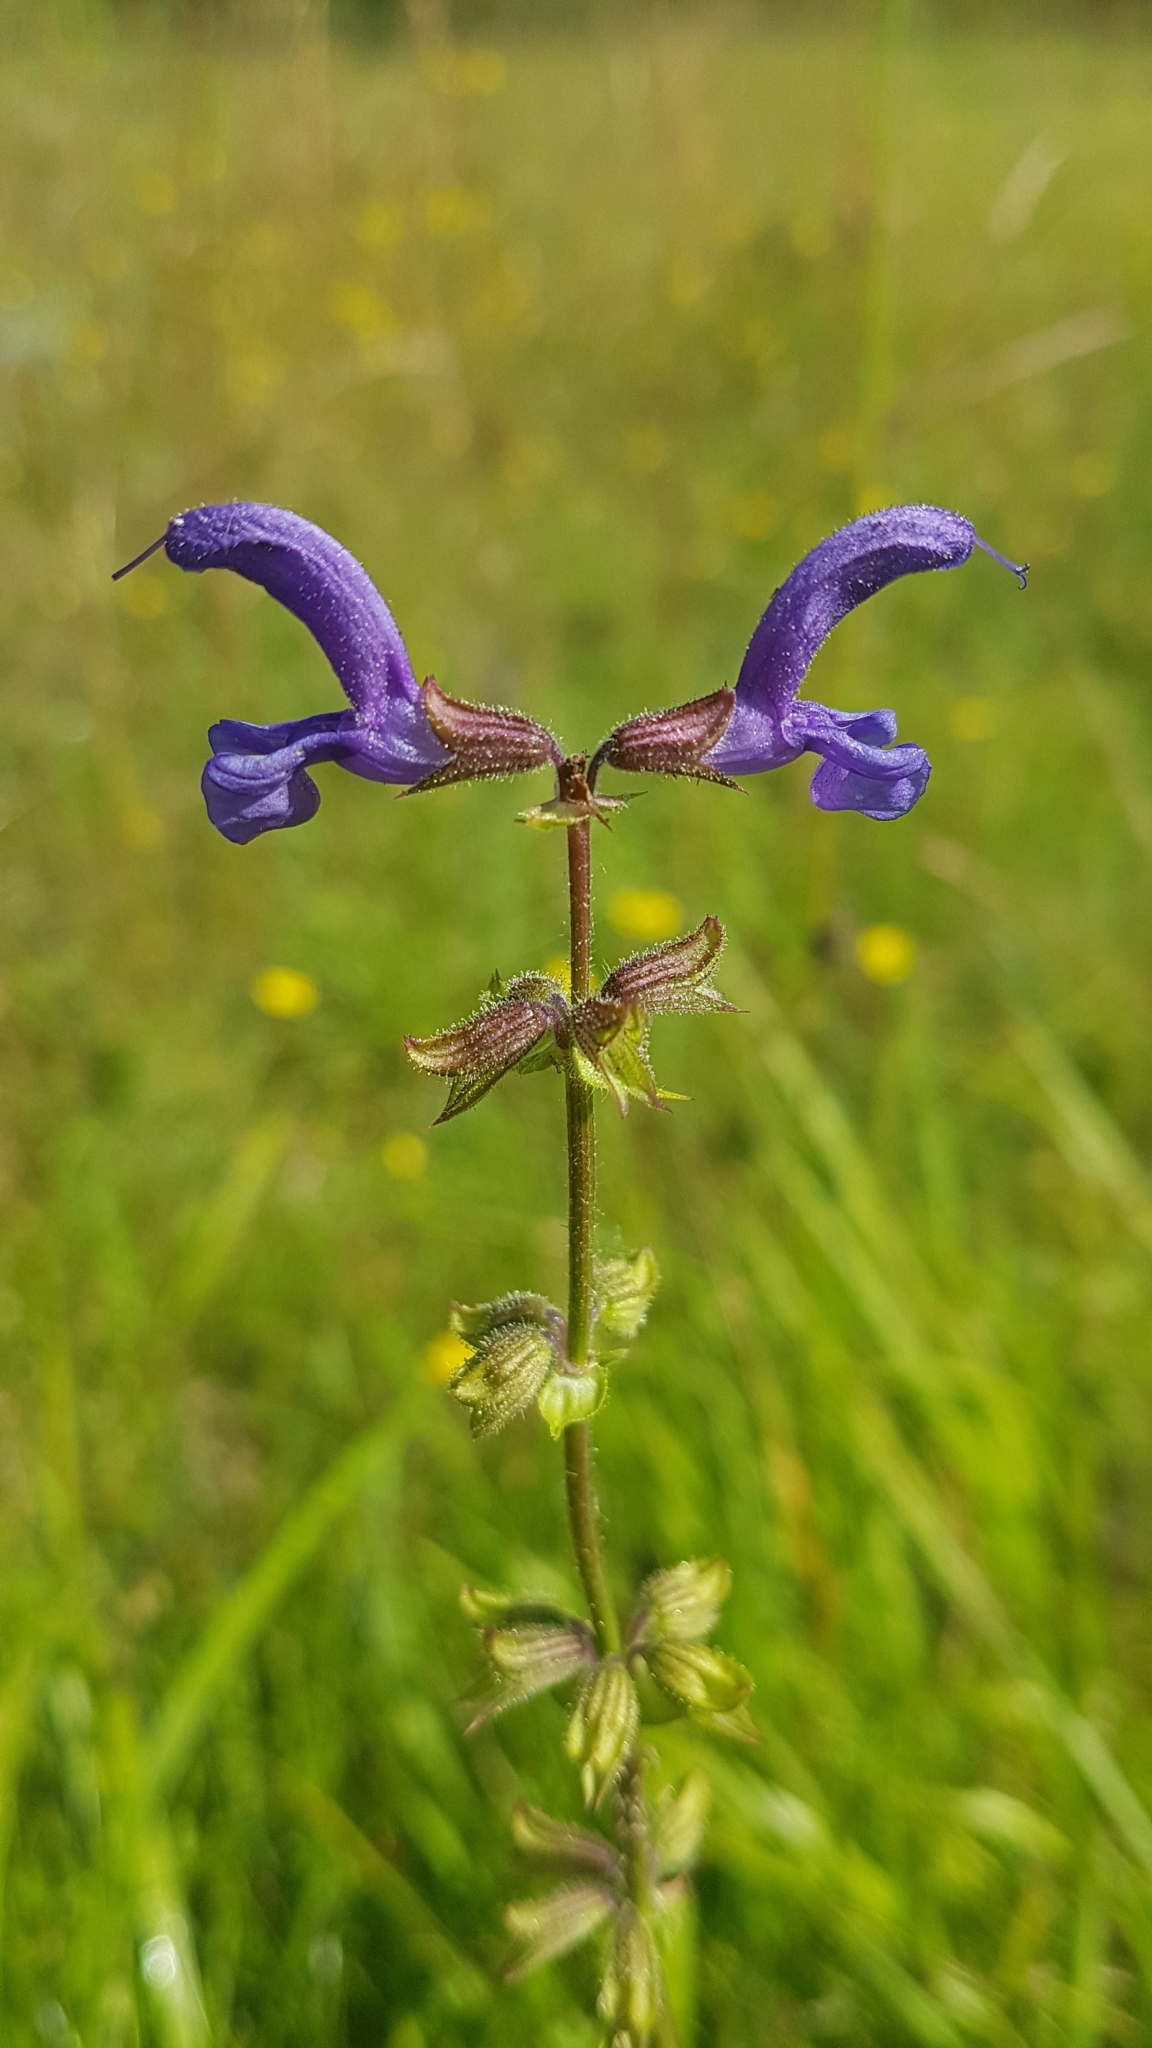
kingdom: Plantae
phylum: Tracheophyta
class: Magnoliopsida
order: Lamiales
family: Lamiaceae
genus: Salvia
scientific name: Salvia pratensis
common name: Meadow sage
